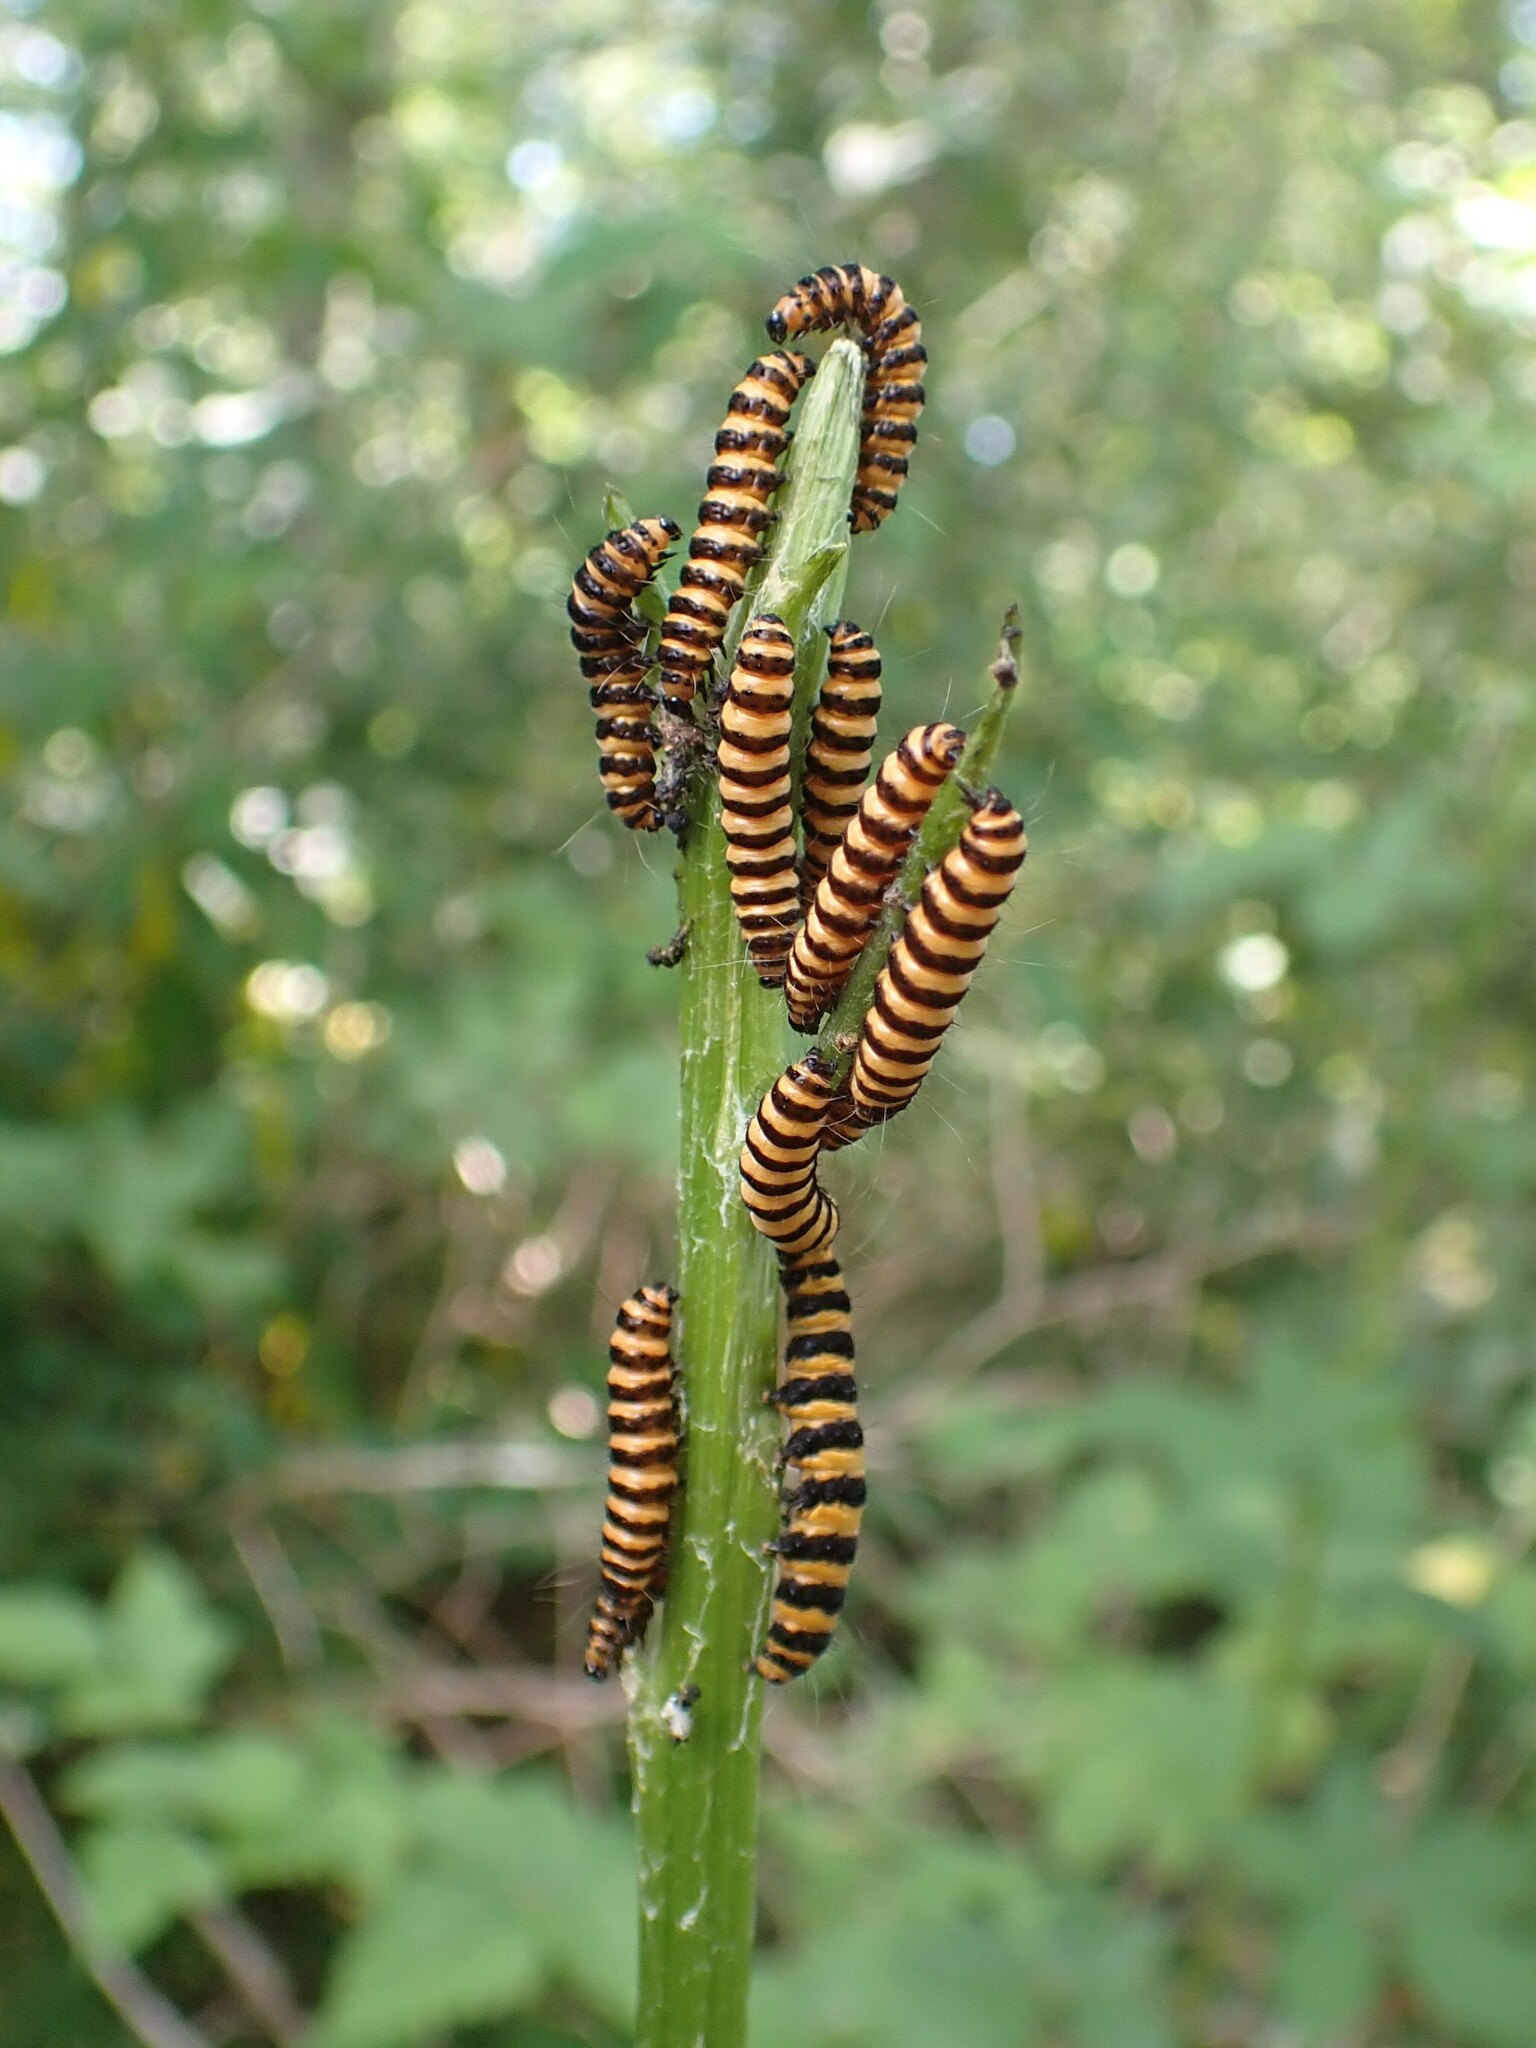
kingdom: Animalia
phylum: Arthropoda
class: Insecta
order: Lepidoptera
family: Erebidae
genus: Tyria
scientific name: Tyria jacobaeae
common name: Cinnabar
